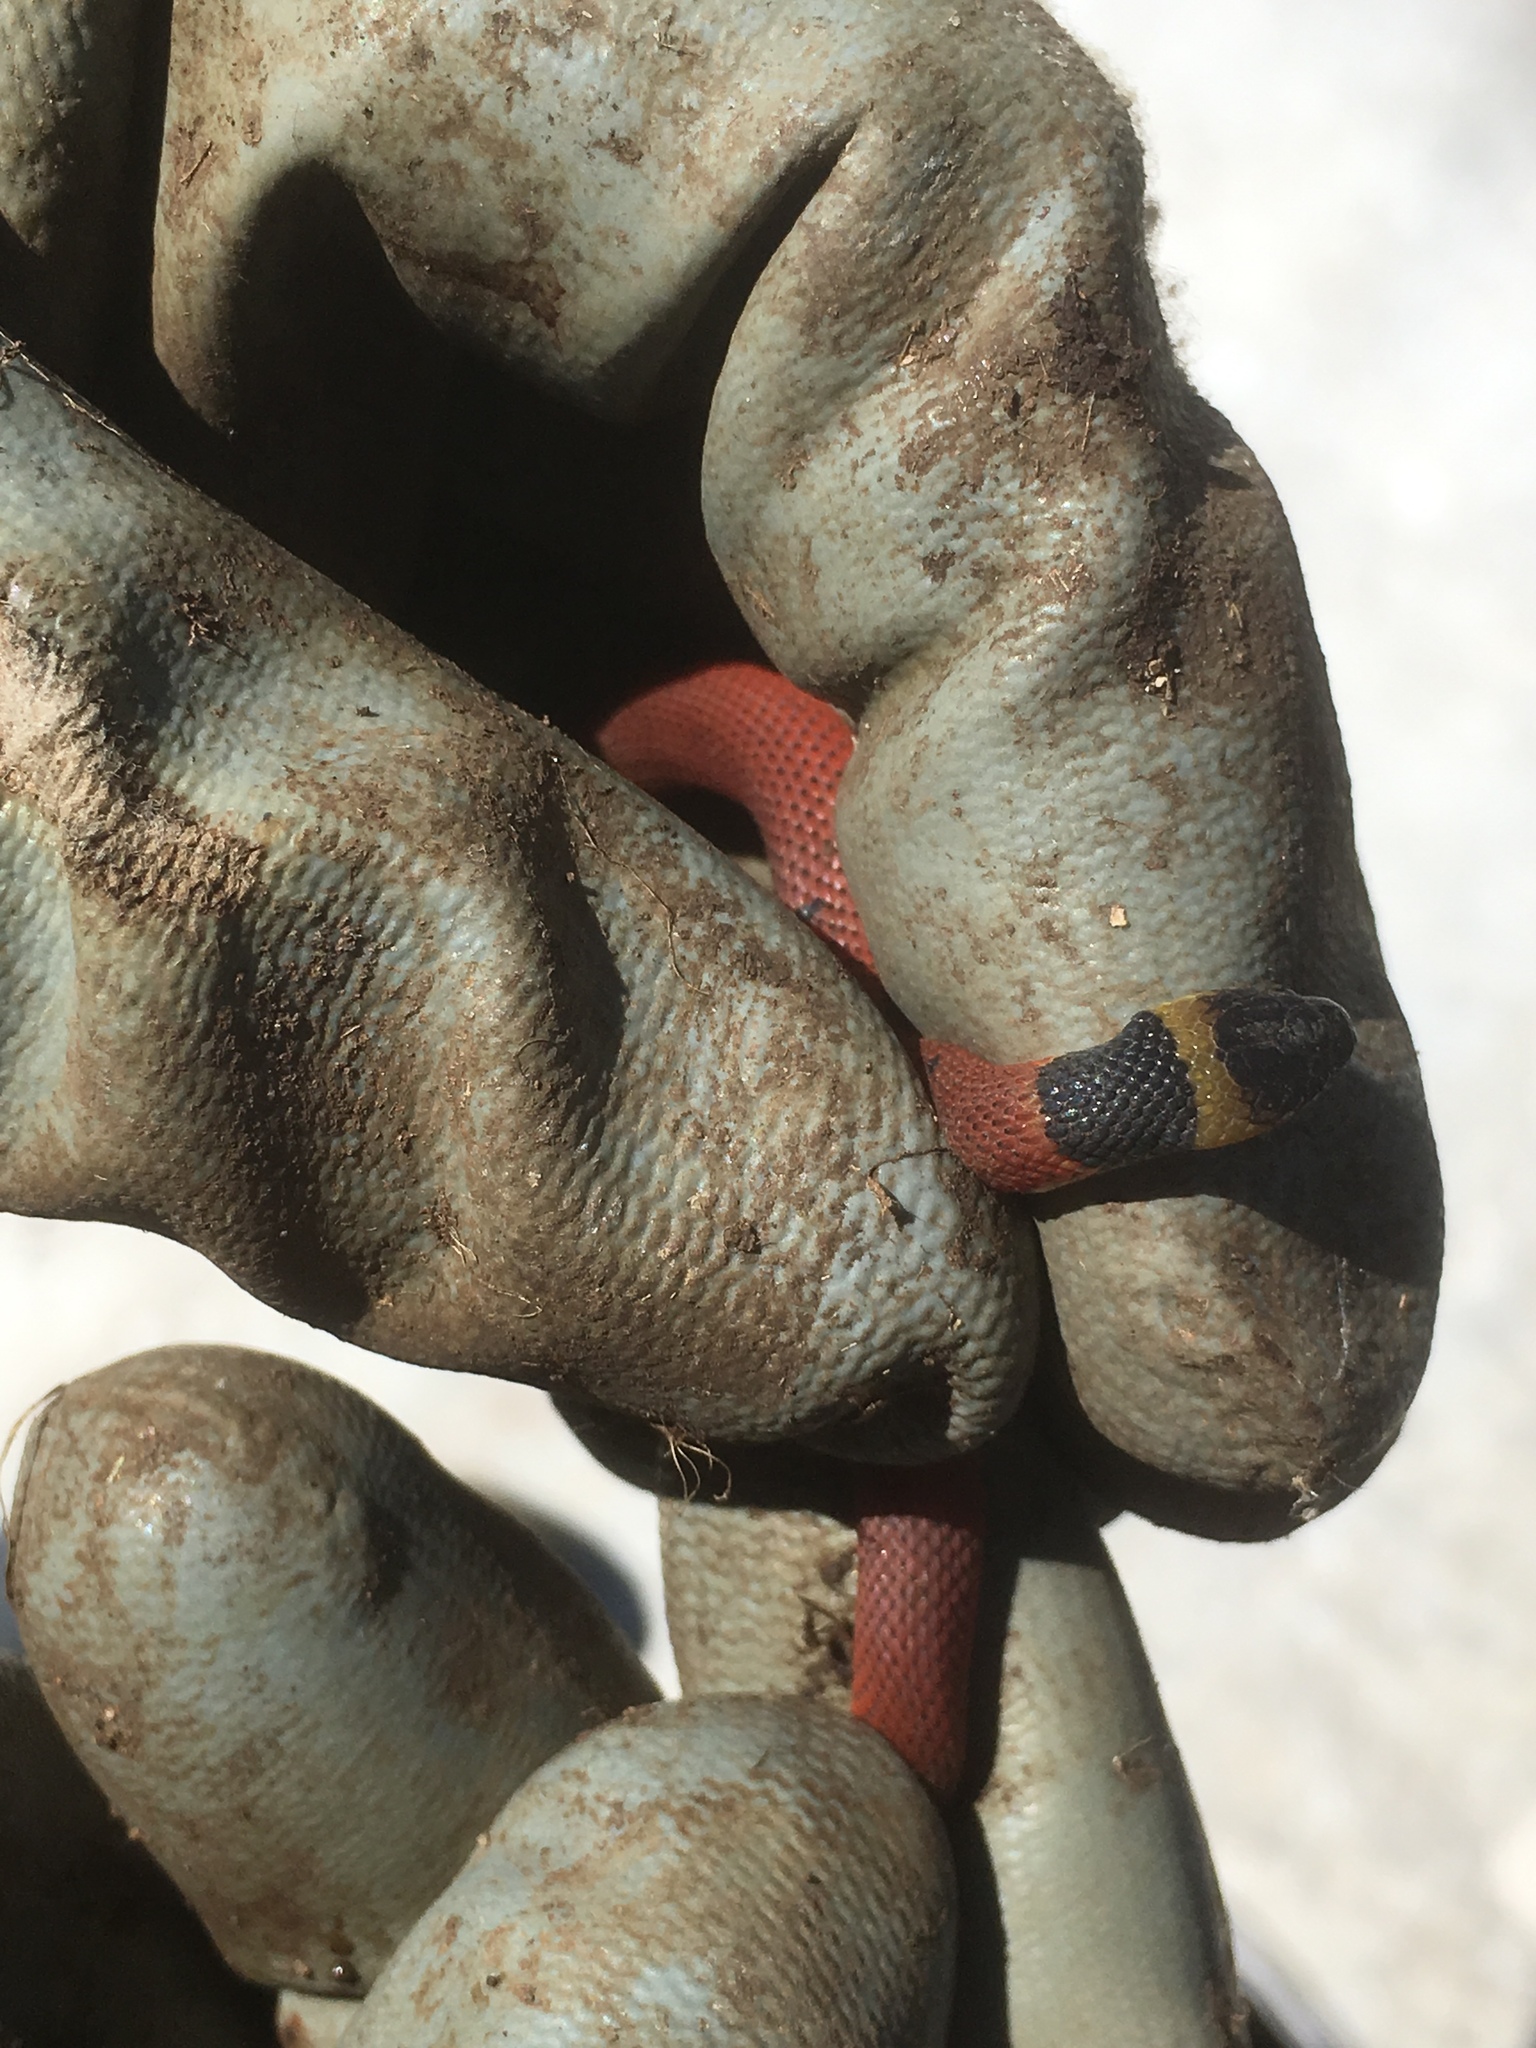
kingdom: Animalia
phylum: Chordata
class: Squamata
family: Colubridae
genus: Ninia
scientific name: Ninia sebae
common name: Redback coffee snake
